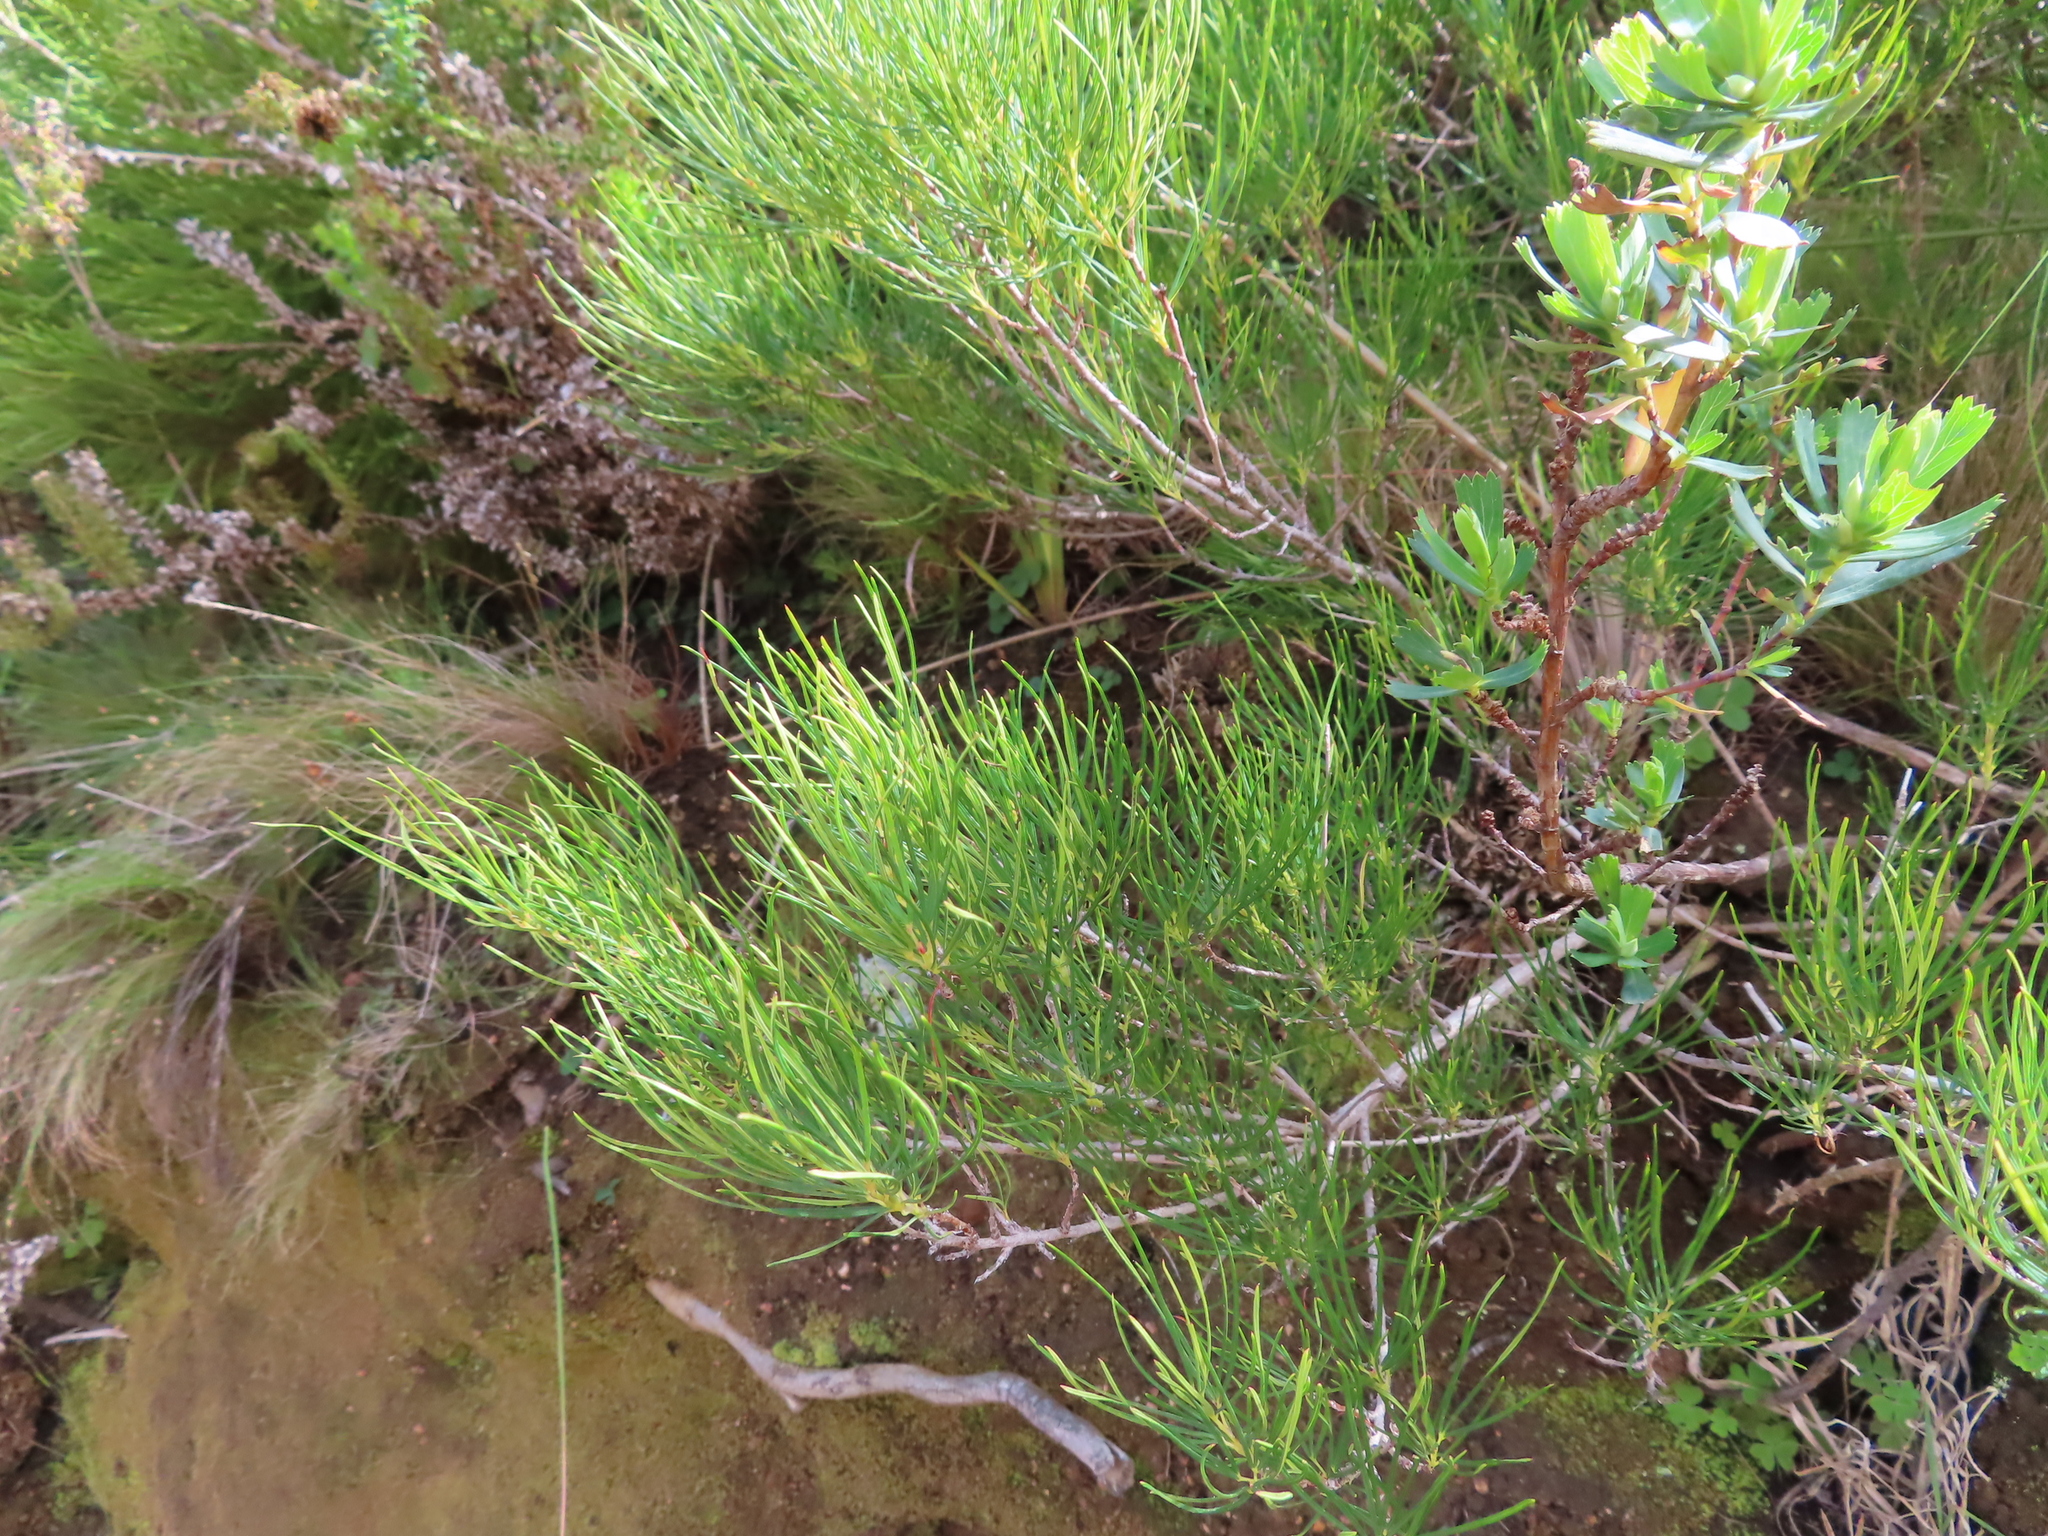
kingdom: Plantae
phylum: Tracheophyta
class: Magnoliopsida
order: Sapindales
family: Anacardiaceae
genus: Searsia
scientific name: Searsia rosmarinifolia
